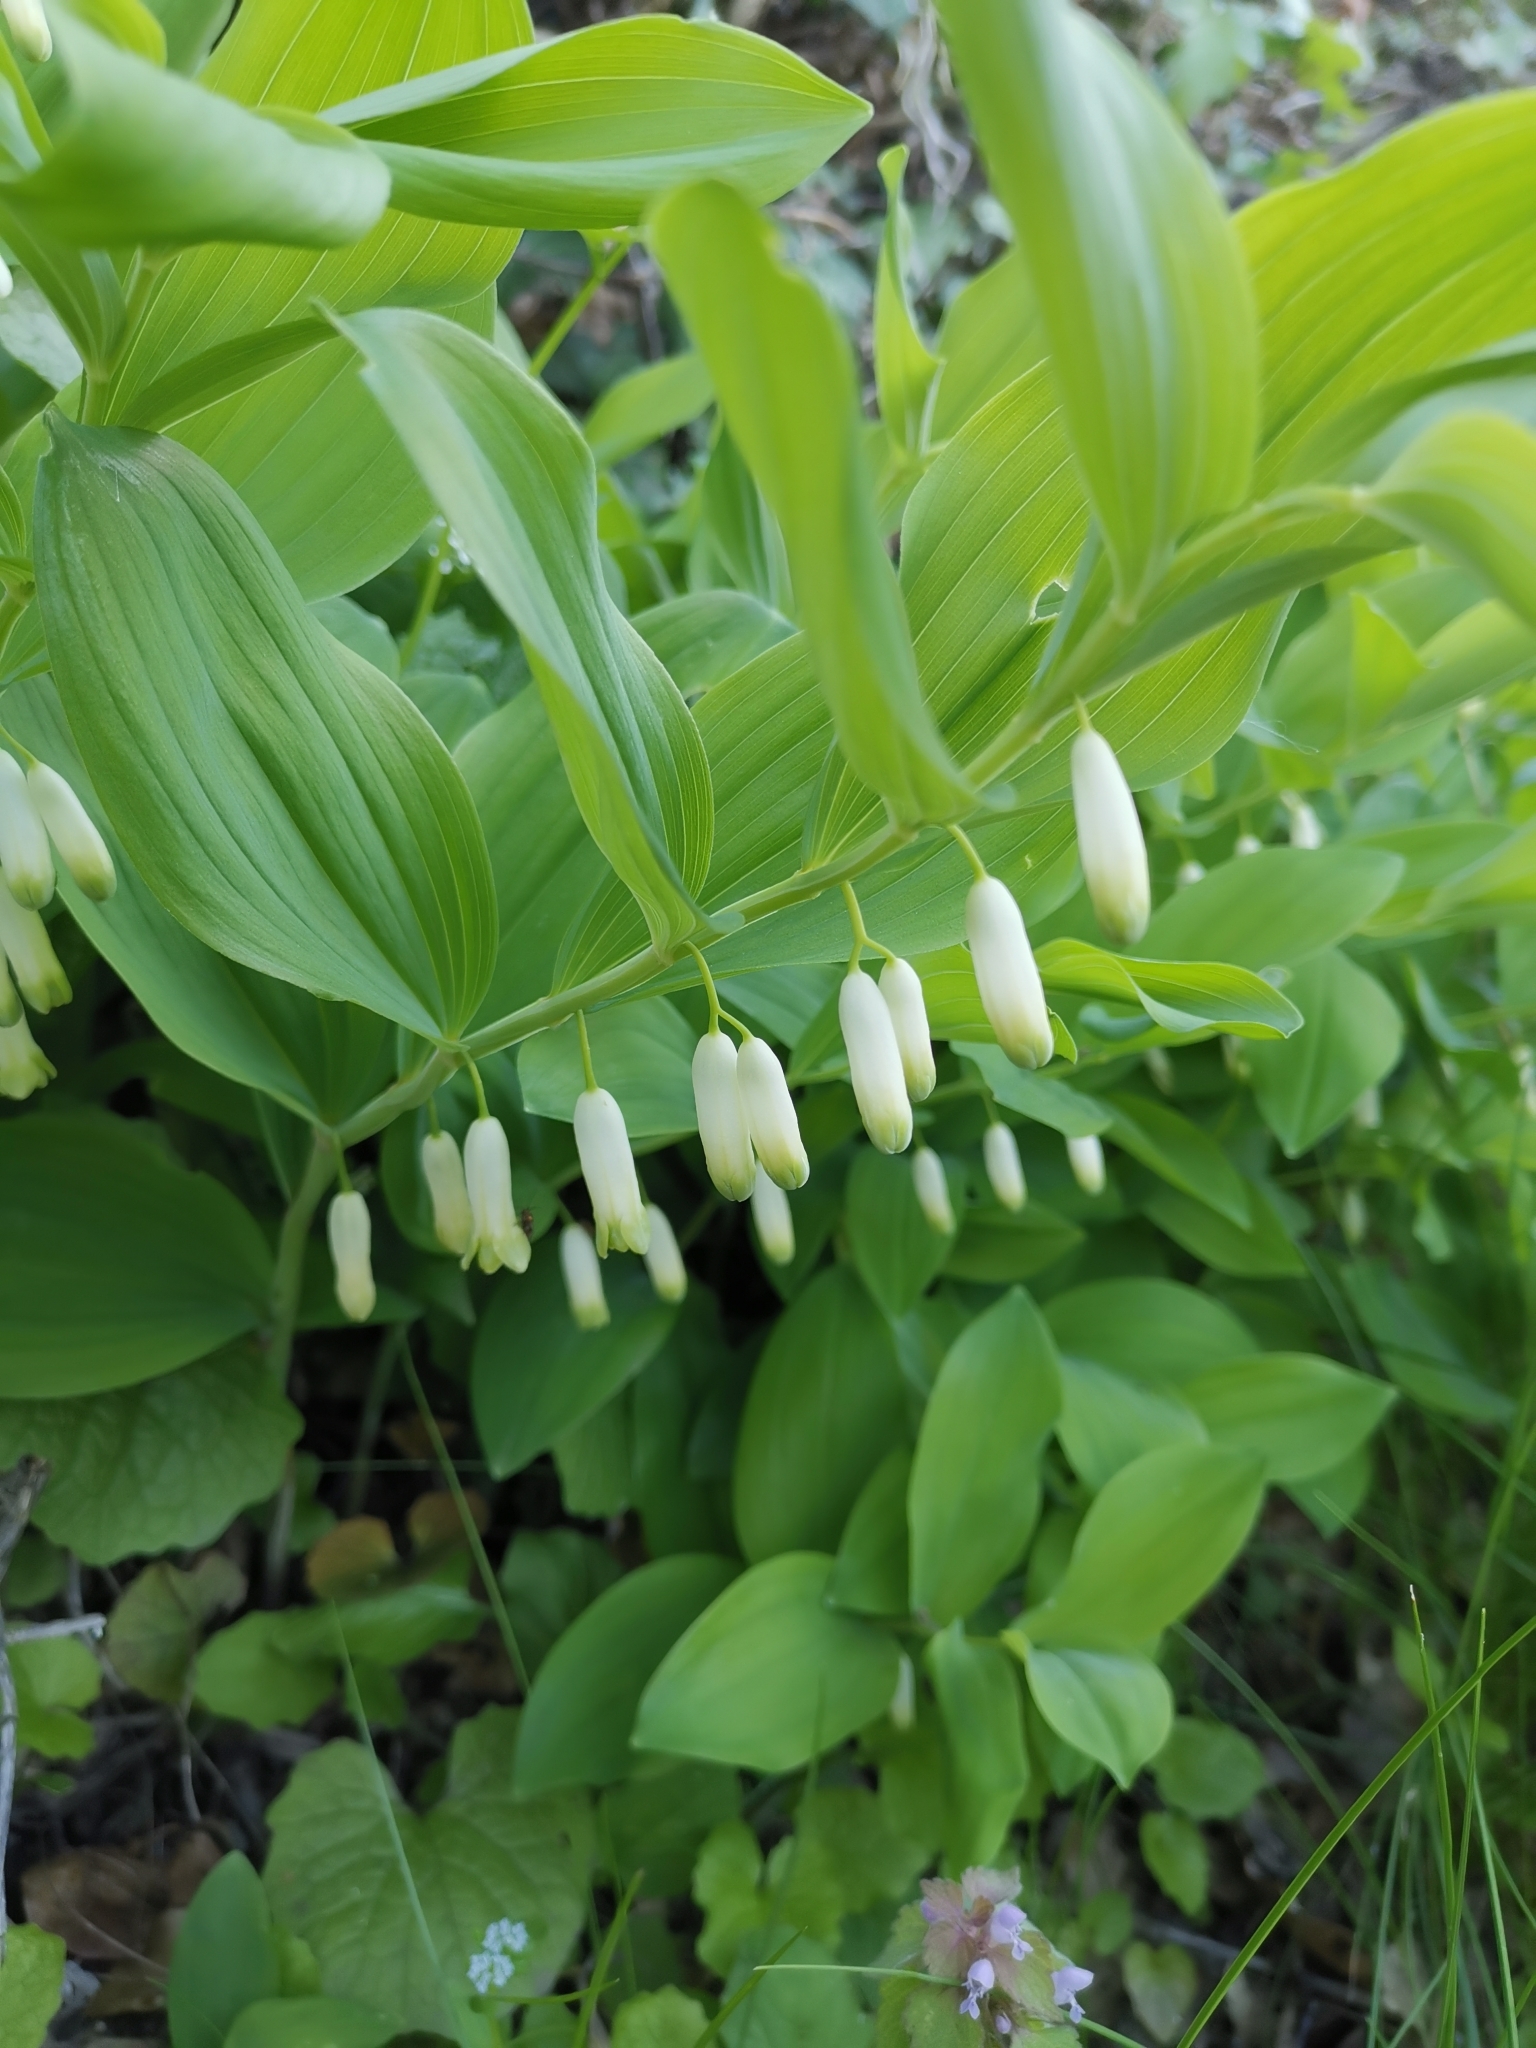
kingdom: Plantae
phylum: Tracheophyta
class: Liliopsida
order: Asparagales
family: Asparagaceae
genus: Polygonatum
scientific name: Polygonatum odoratum
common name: Angular solomon's-seal
